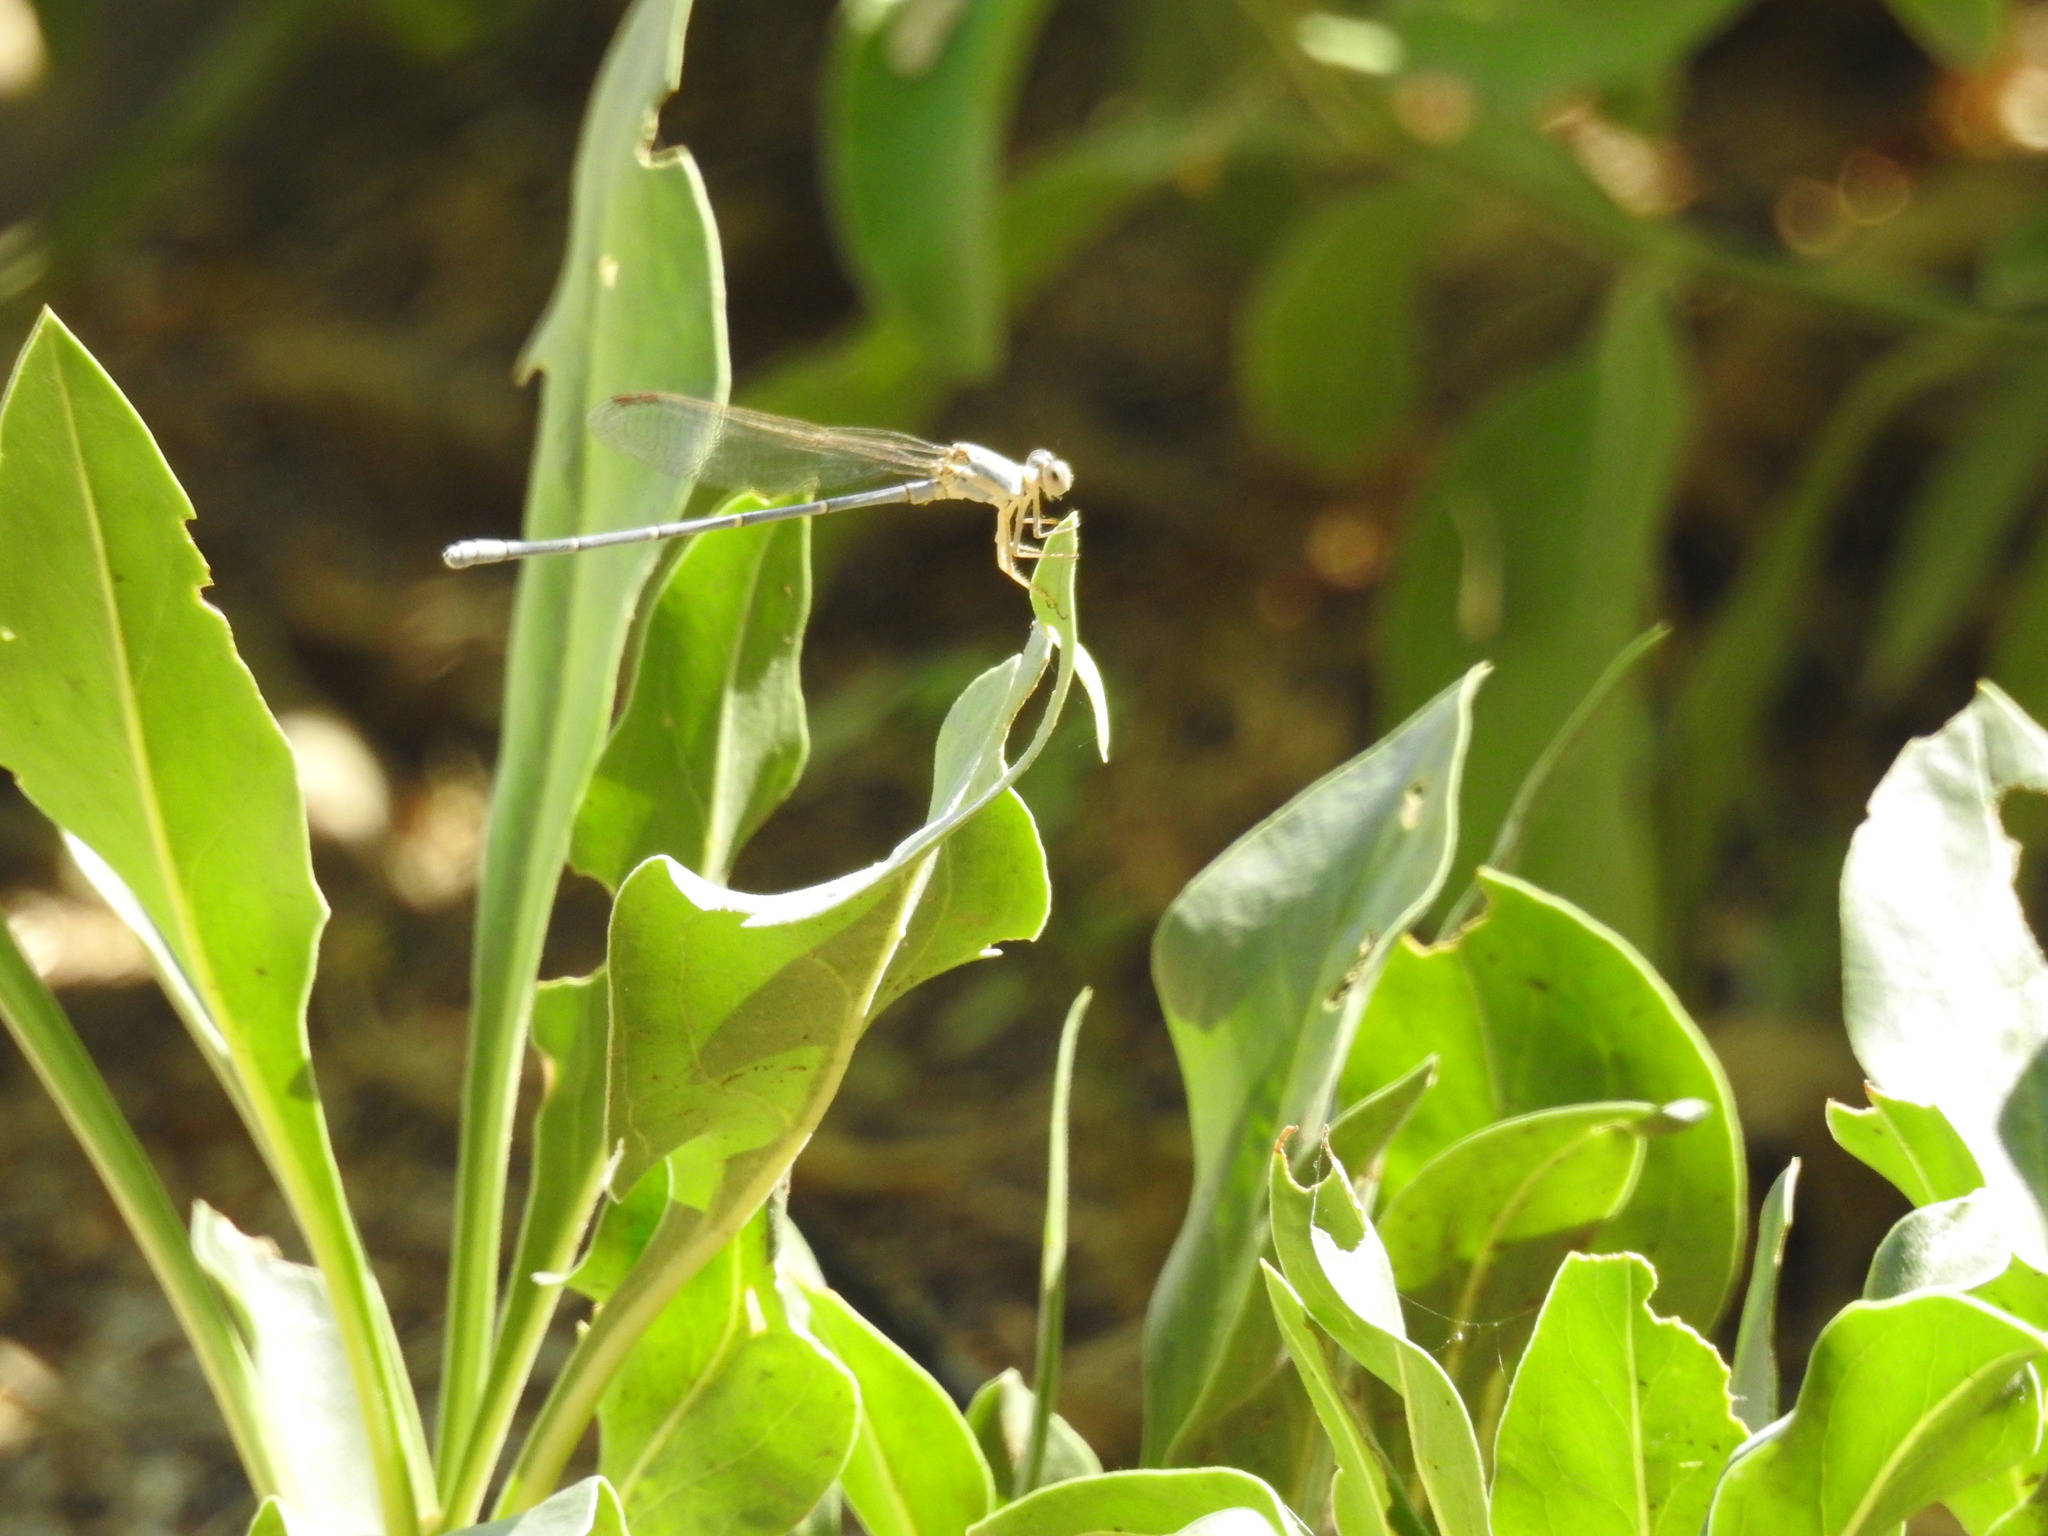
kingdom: Animalia
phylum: Arthropoda
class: Insecta
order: Odonata
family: Coenagrionidae
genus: Argia
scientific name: Argia moesta
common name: Powdered dancer
